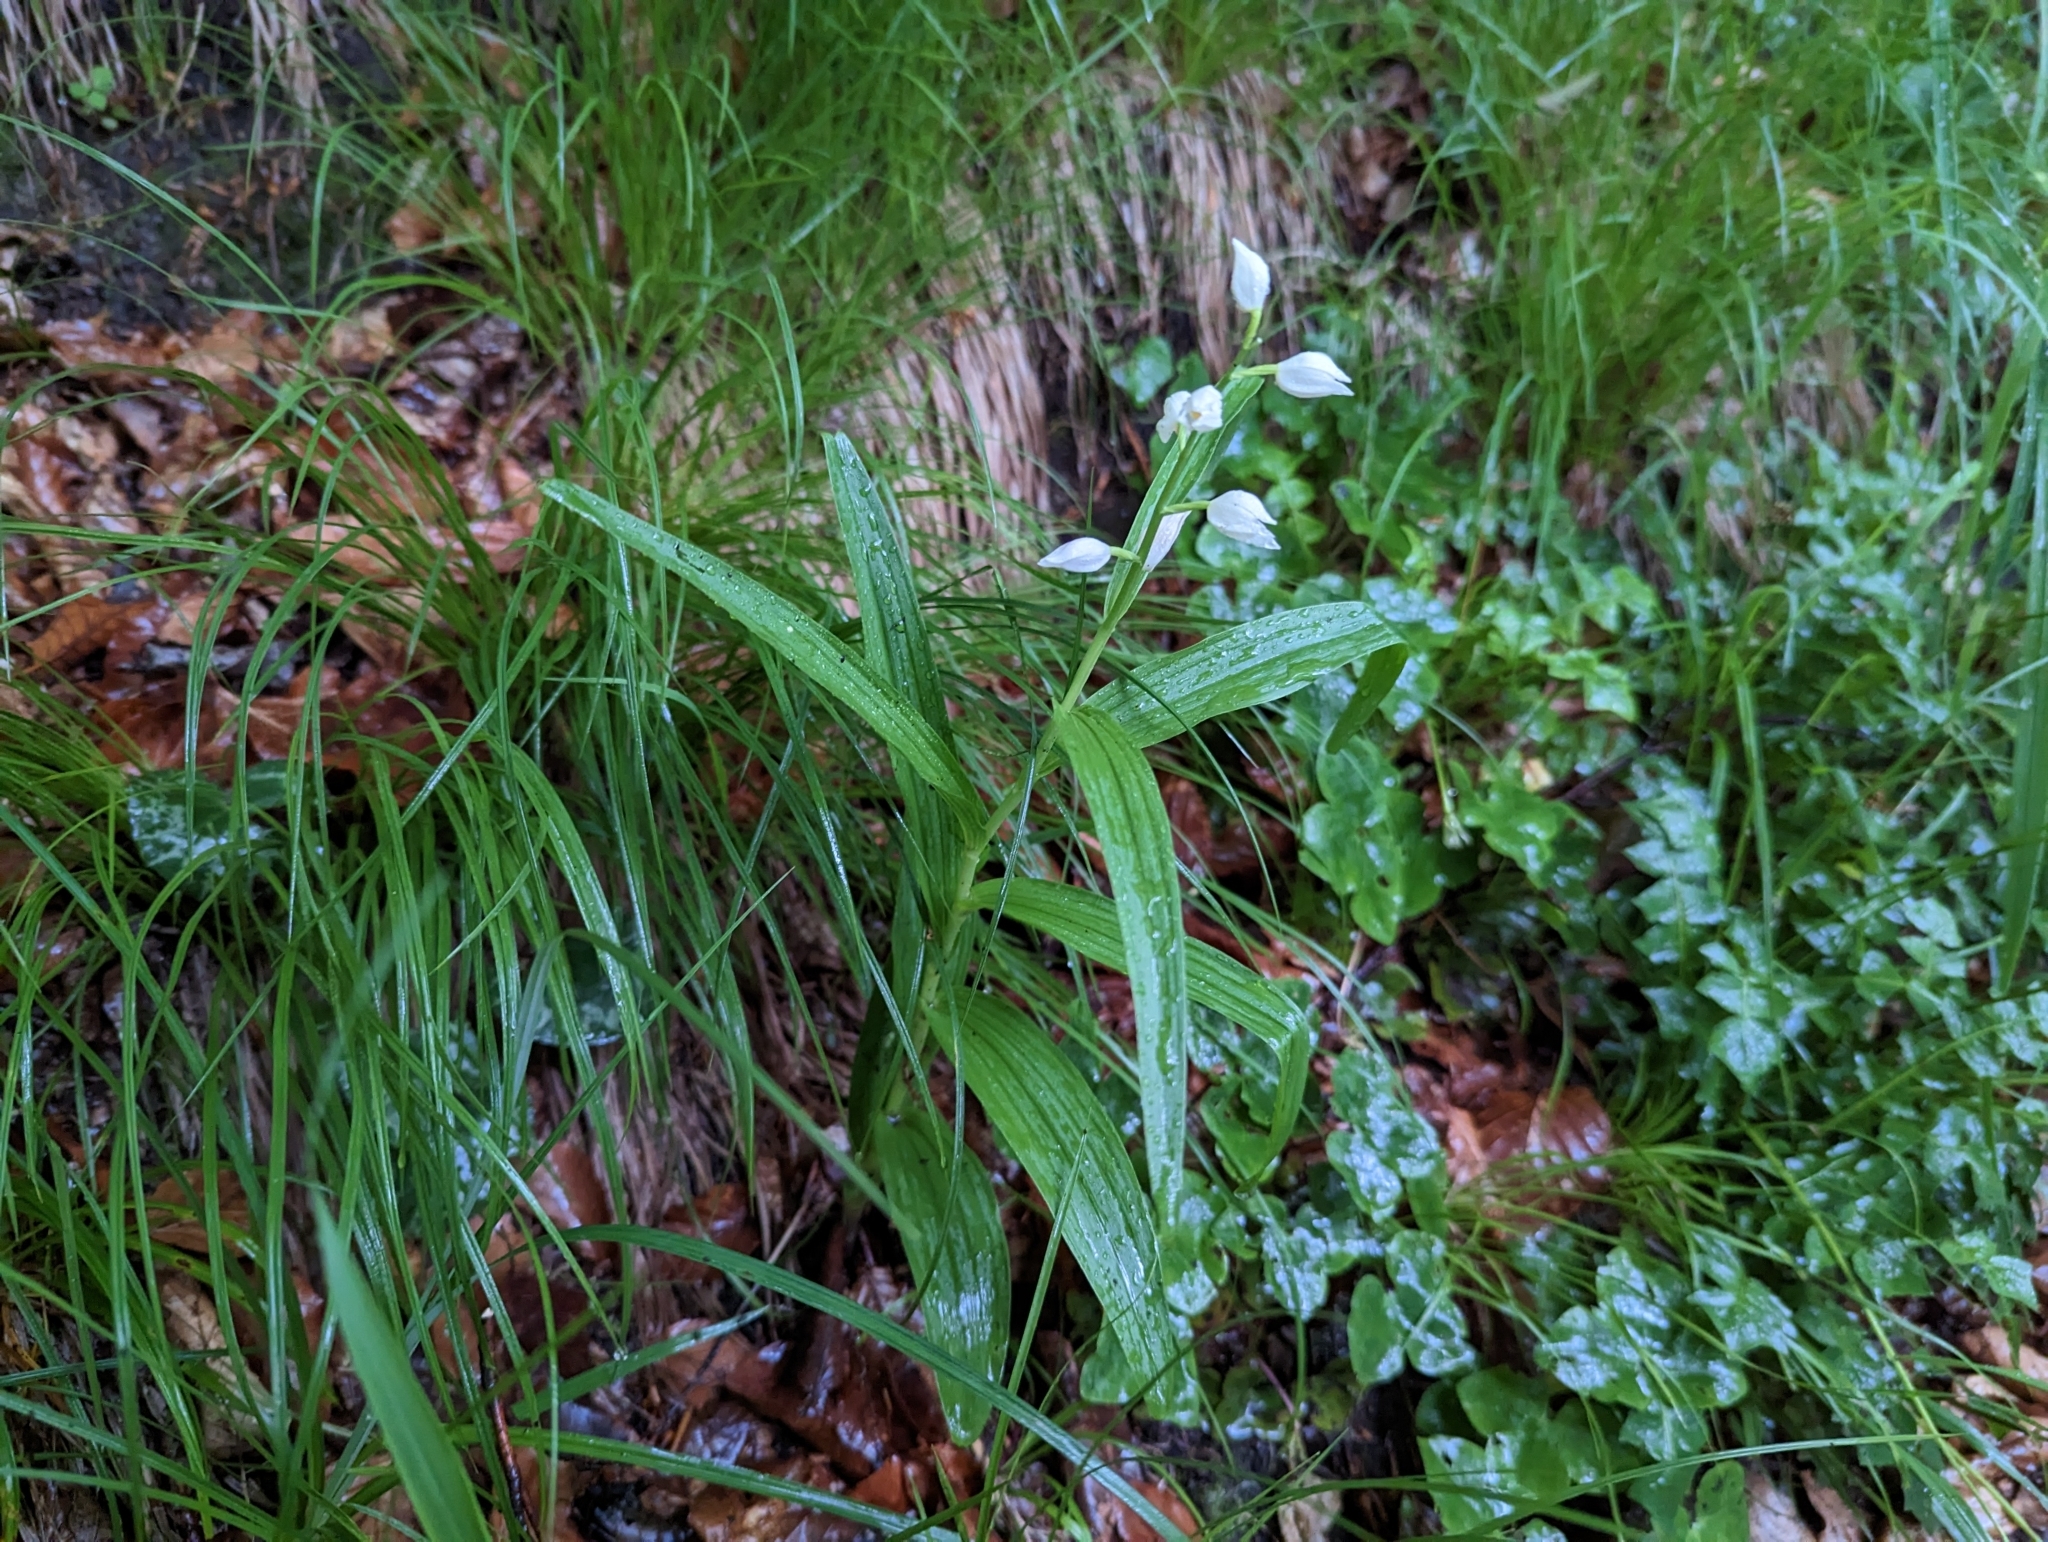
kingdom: Plantae
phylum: Tracheophyta
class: Liliopsida
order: Asparagales
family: Orchidaceae
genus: Cephalanthera
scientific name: Cephalanthera longifolia
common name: Narrow-leaved helleborine
